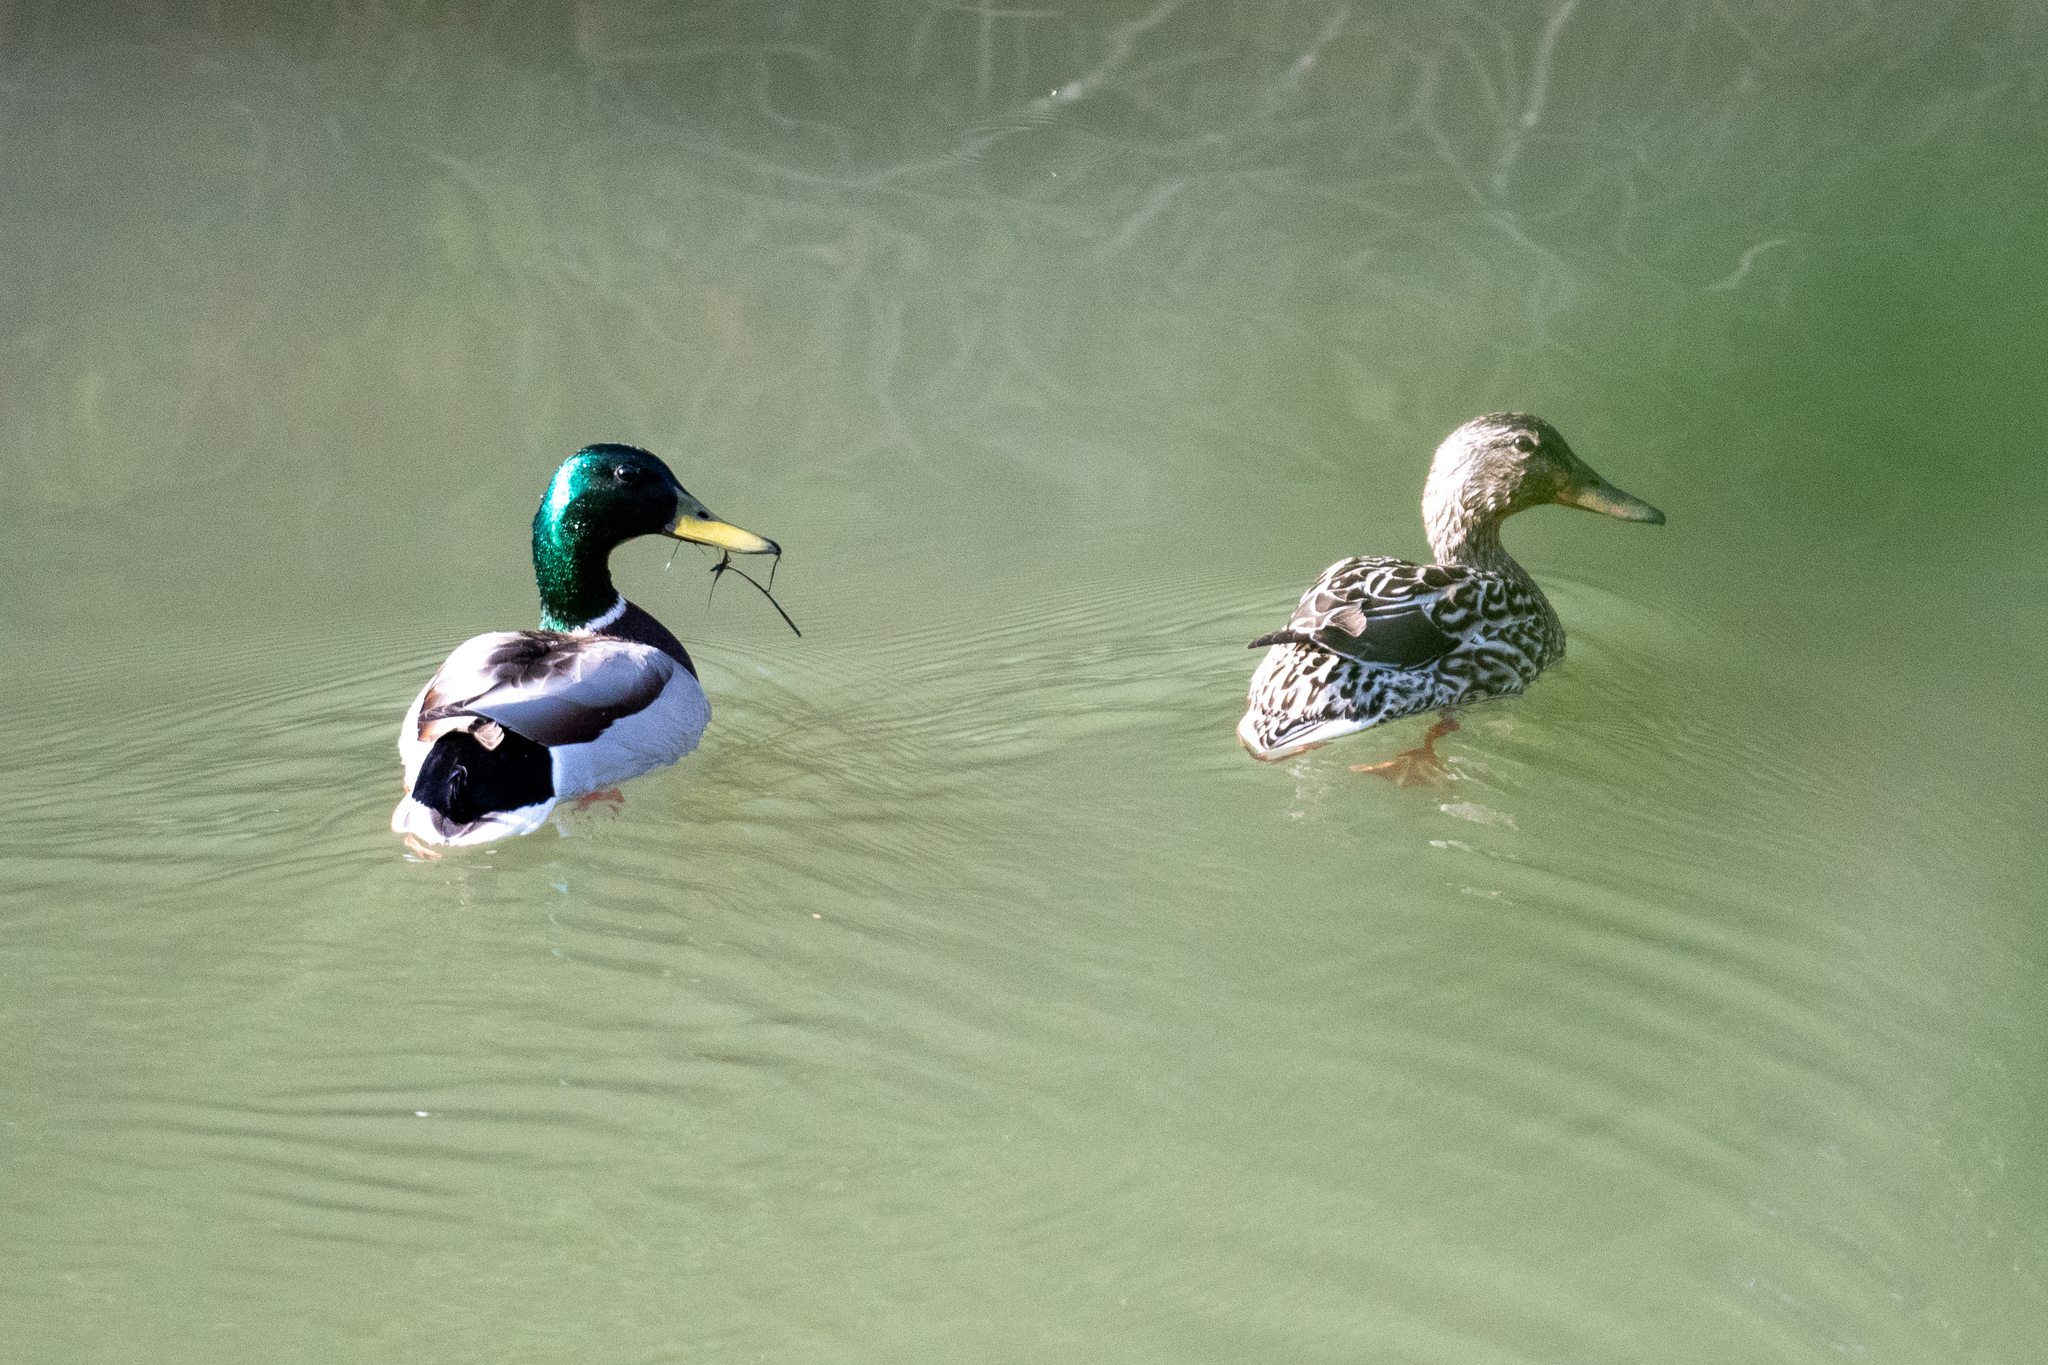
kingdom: Animalia
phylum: Chordata
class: Aves
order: Anseriformes
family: Anatidae
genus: Anas
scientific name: Anas platyrhynchos
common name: Mallard
